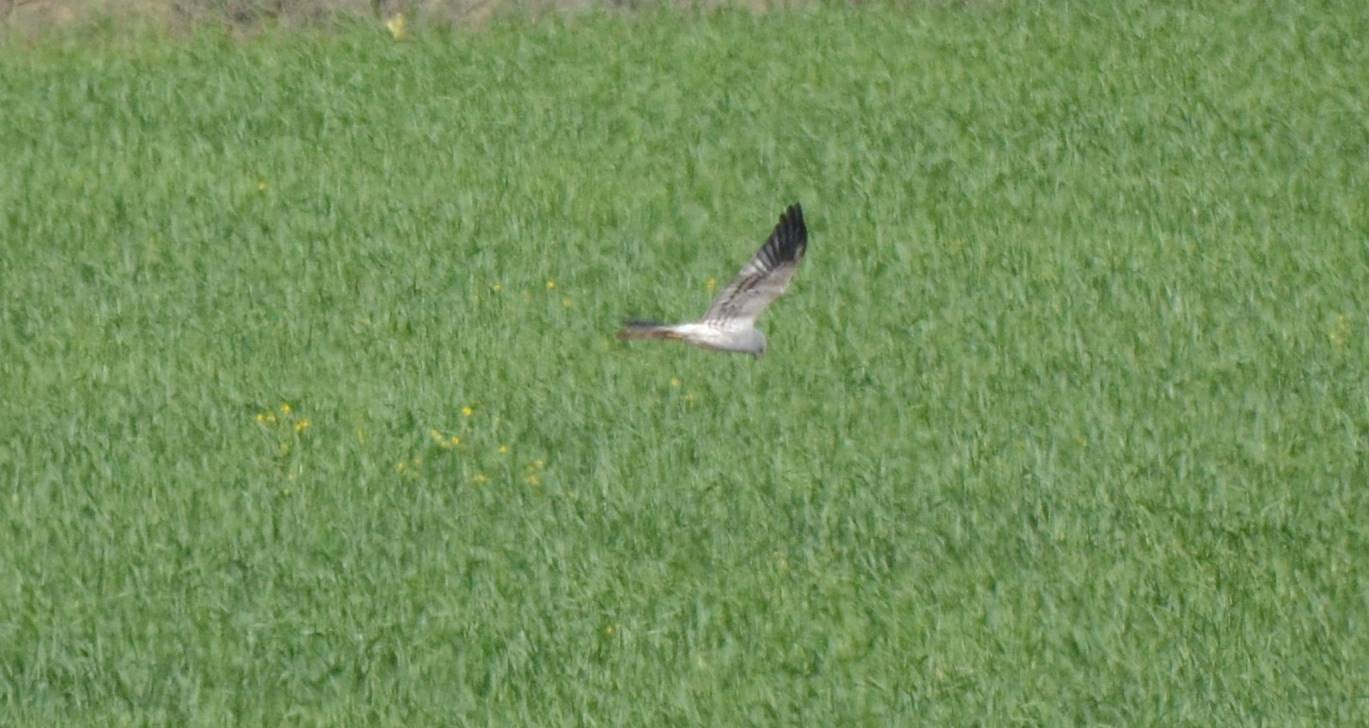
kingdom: Animalia
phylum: Chordata
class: Aves
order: Accipitriformes
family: Accipitridae
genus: Circus
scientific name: Circus pygargus
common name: Montagu's harrier
